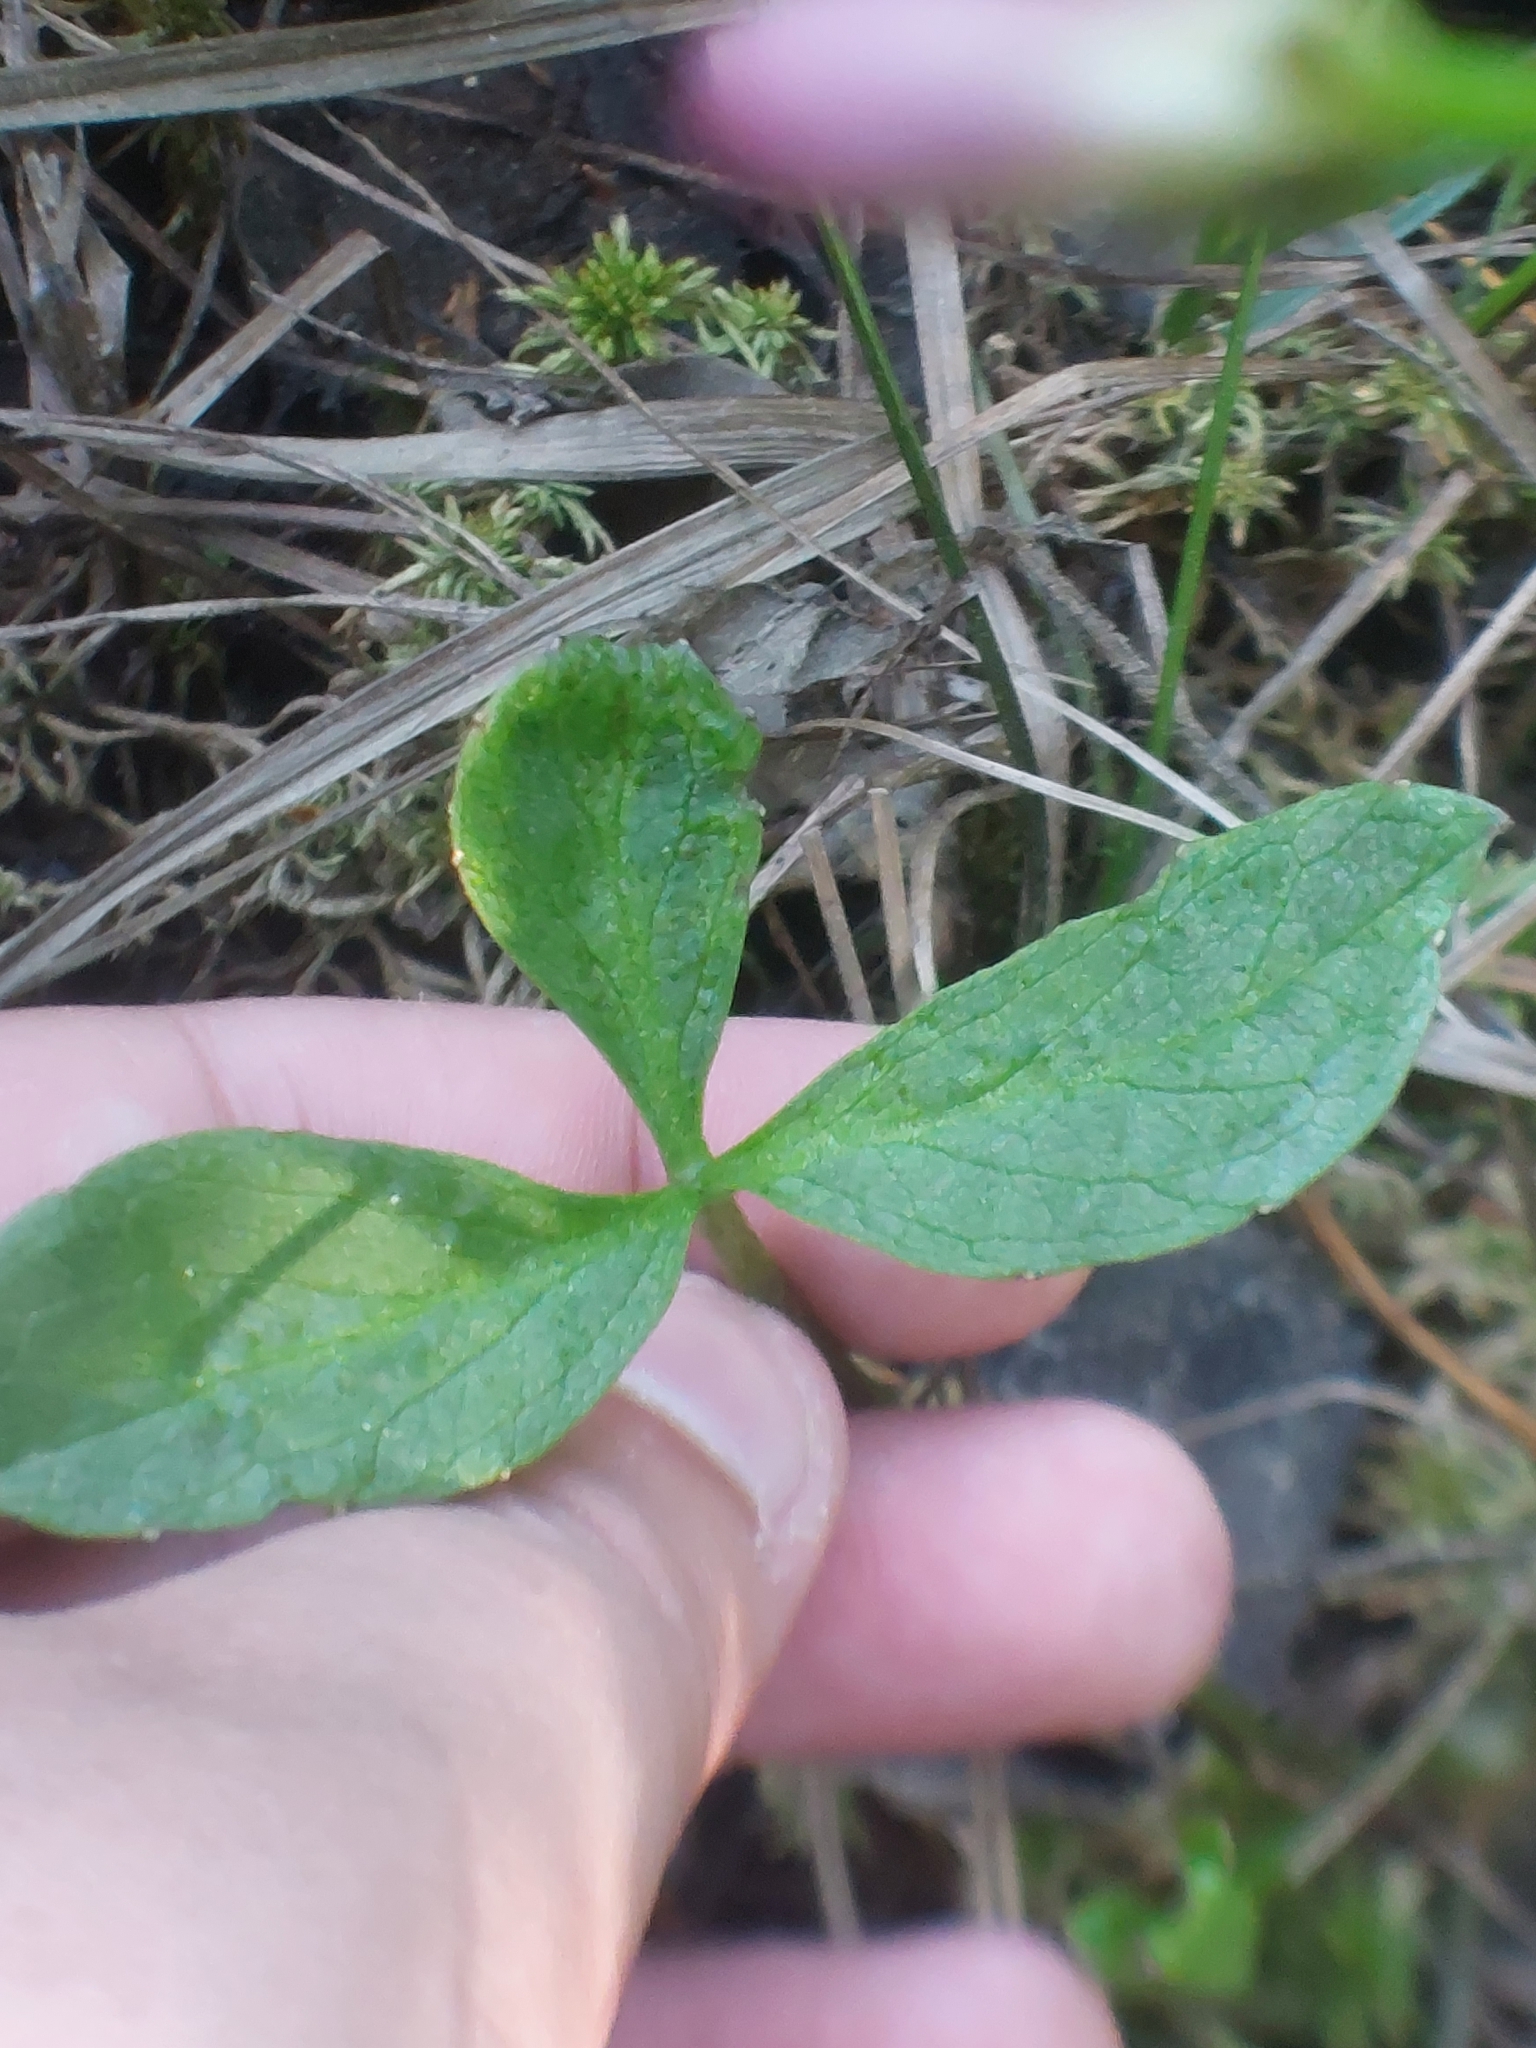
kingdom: Plantae
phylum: Tracheophyta
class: Magnoliopsida
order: Asterales
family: Menyanthaceae
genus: Menyanthes
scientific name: Menyanthes trifoliata
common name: Bogbean
